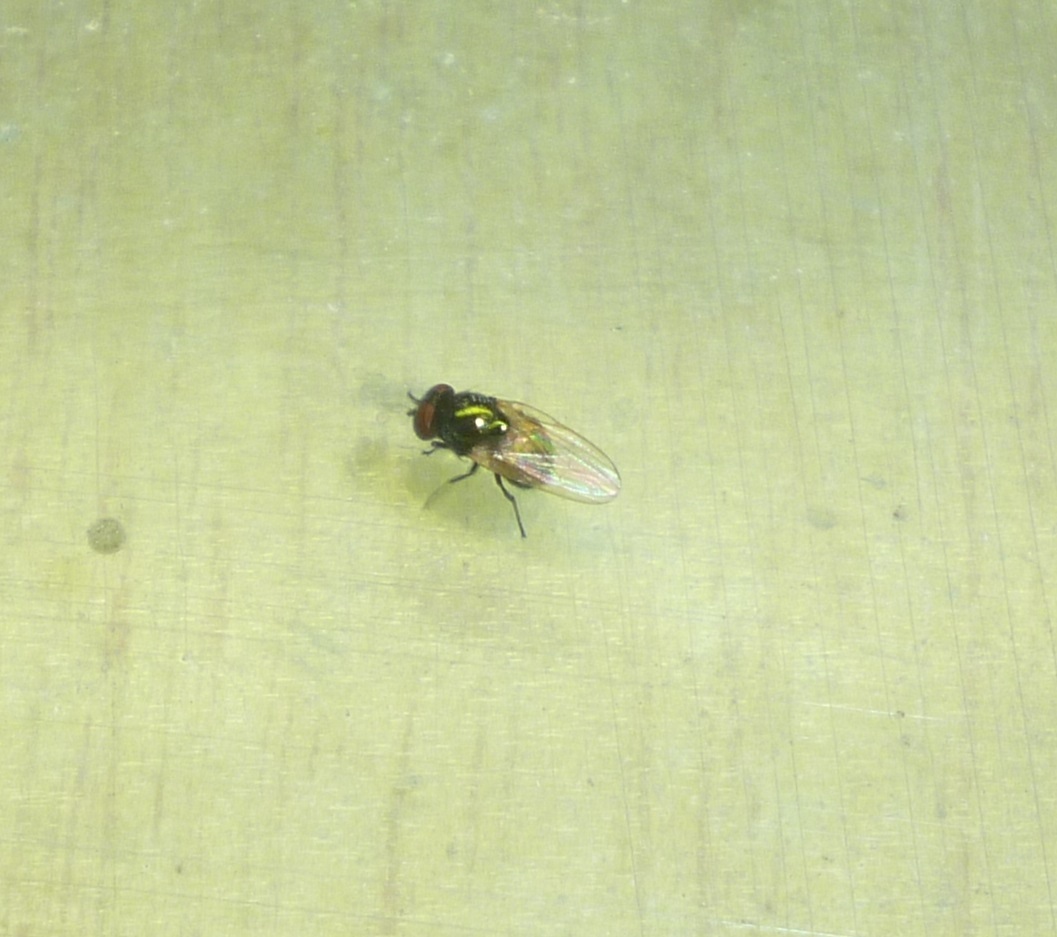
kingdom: Animalia
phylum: Arthropoda
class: Insecta
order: Diptera
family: Lonchaeidae
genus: Lamprolonchaea
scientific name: Lamprolonchaea smaragdi
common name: Lance fly
